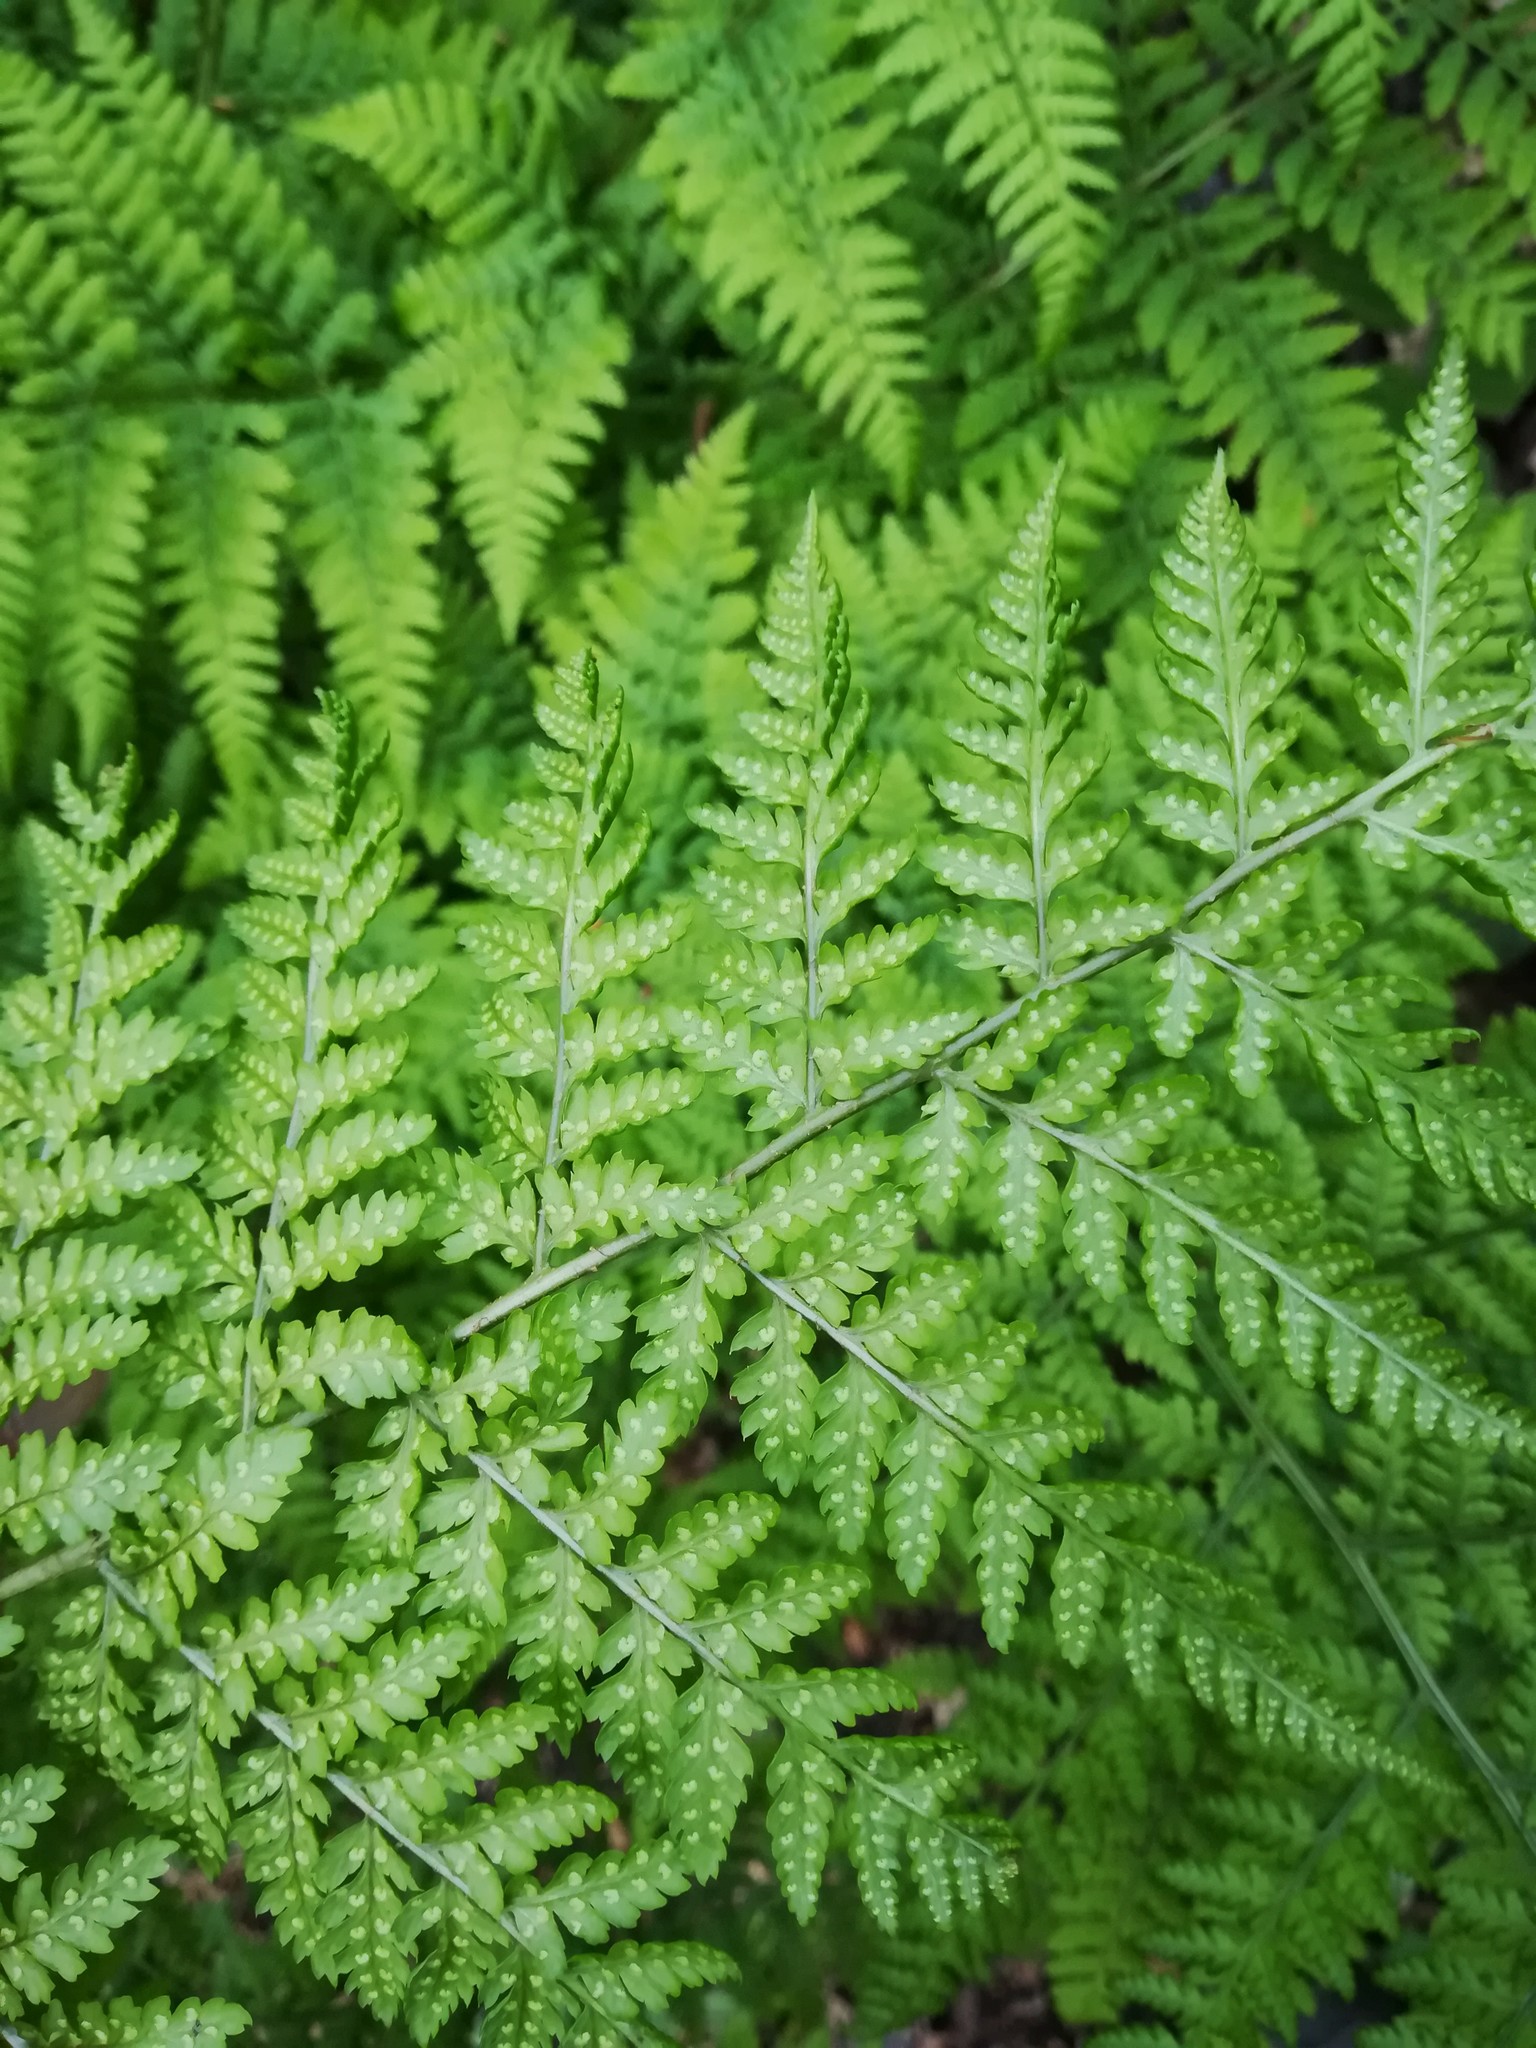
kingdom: Plantae
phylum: Tracheophyta
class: Polypodiopsida
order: Polypodiales
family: Dryopteridaceae
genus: Dryopteris
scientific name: Dryopteris dilatata
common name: Broad buckler-fern
